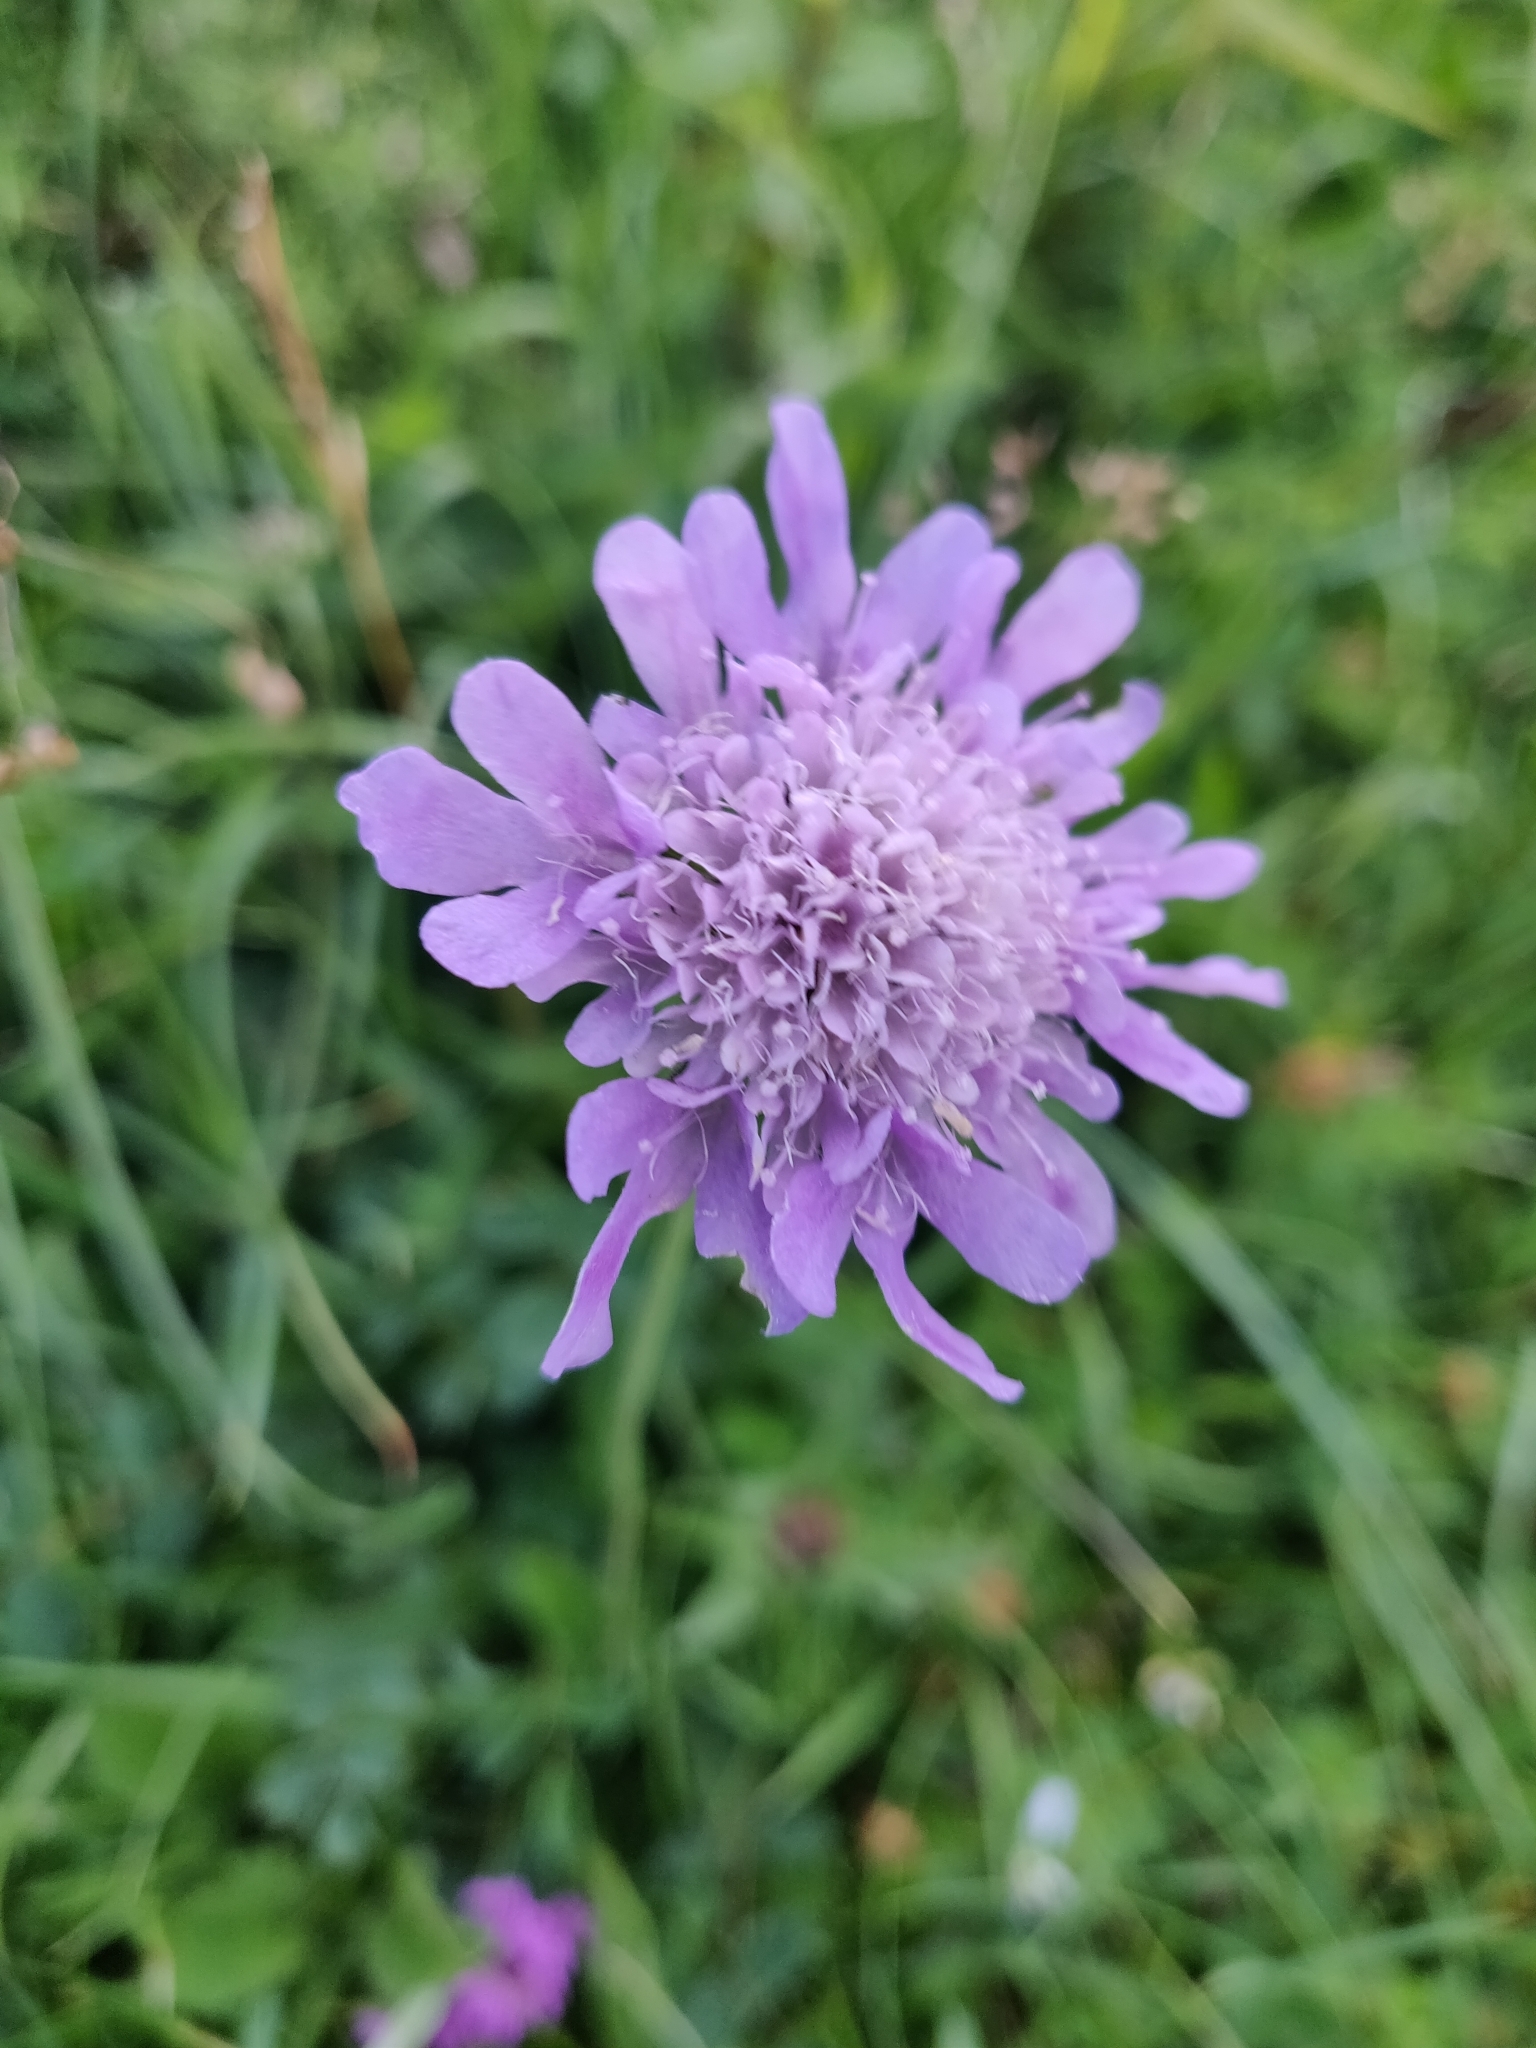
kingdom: Plantae
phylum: Tracheophyta
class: Magnoliopsida
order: Dipsacales
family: Caprifoliaceae
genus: Knautia
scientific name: Knautia arvensis
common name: Field scabiosa
